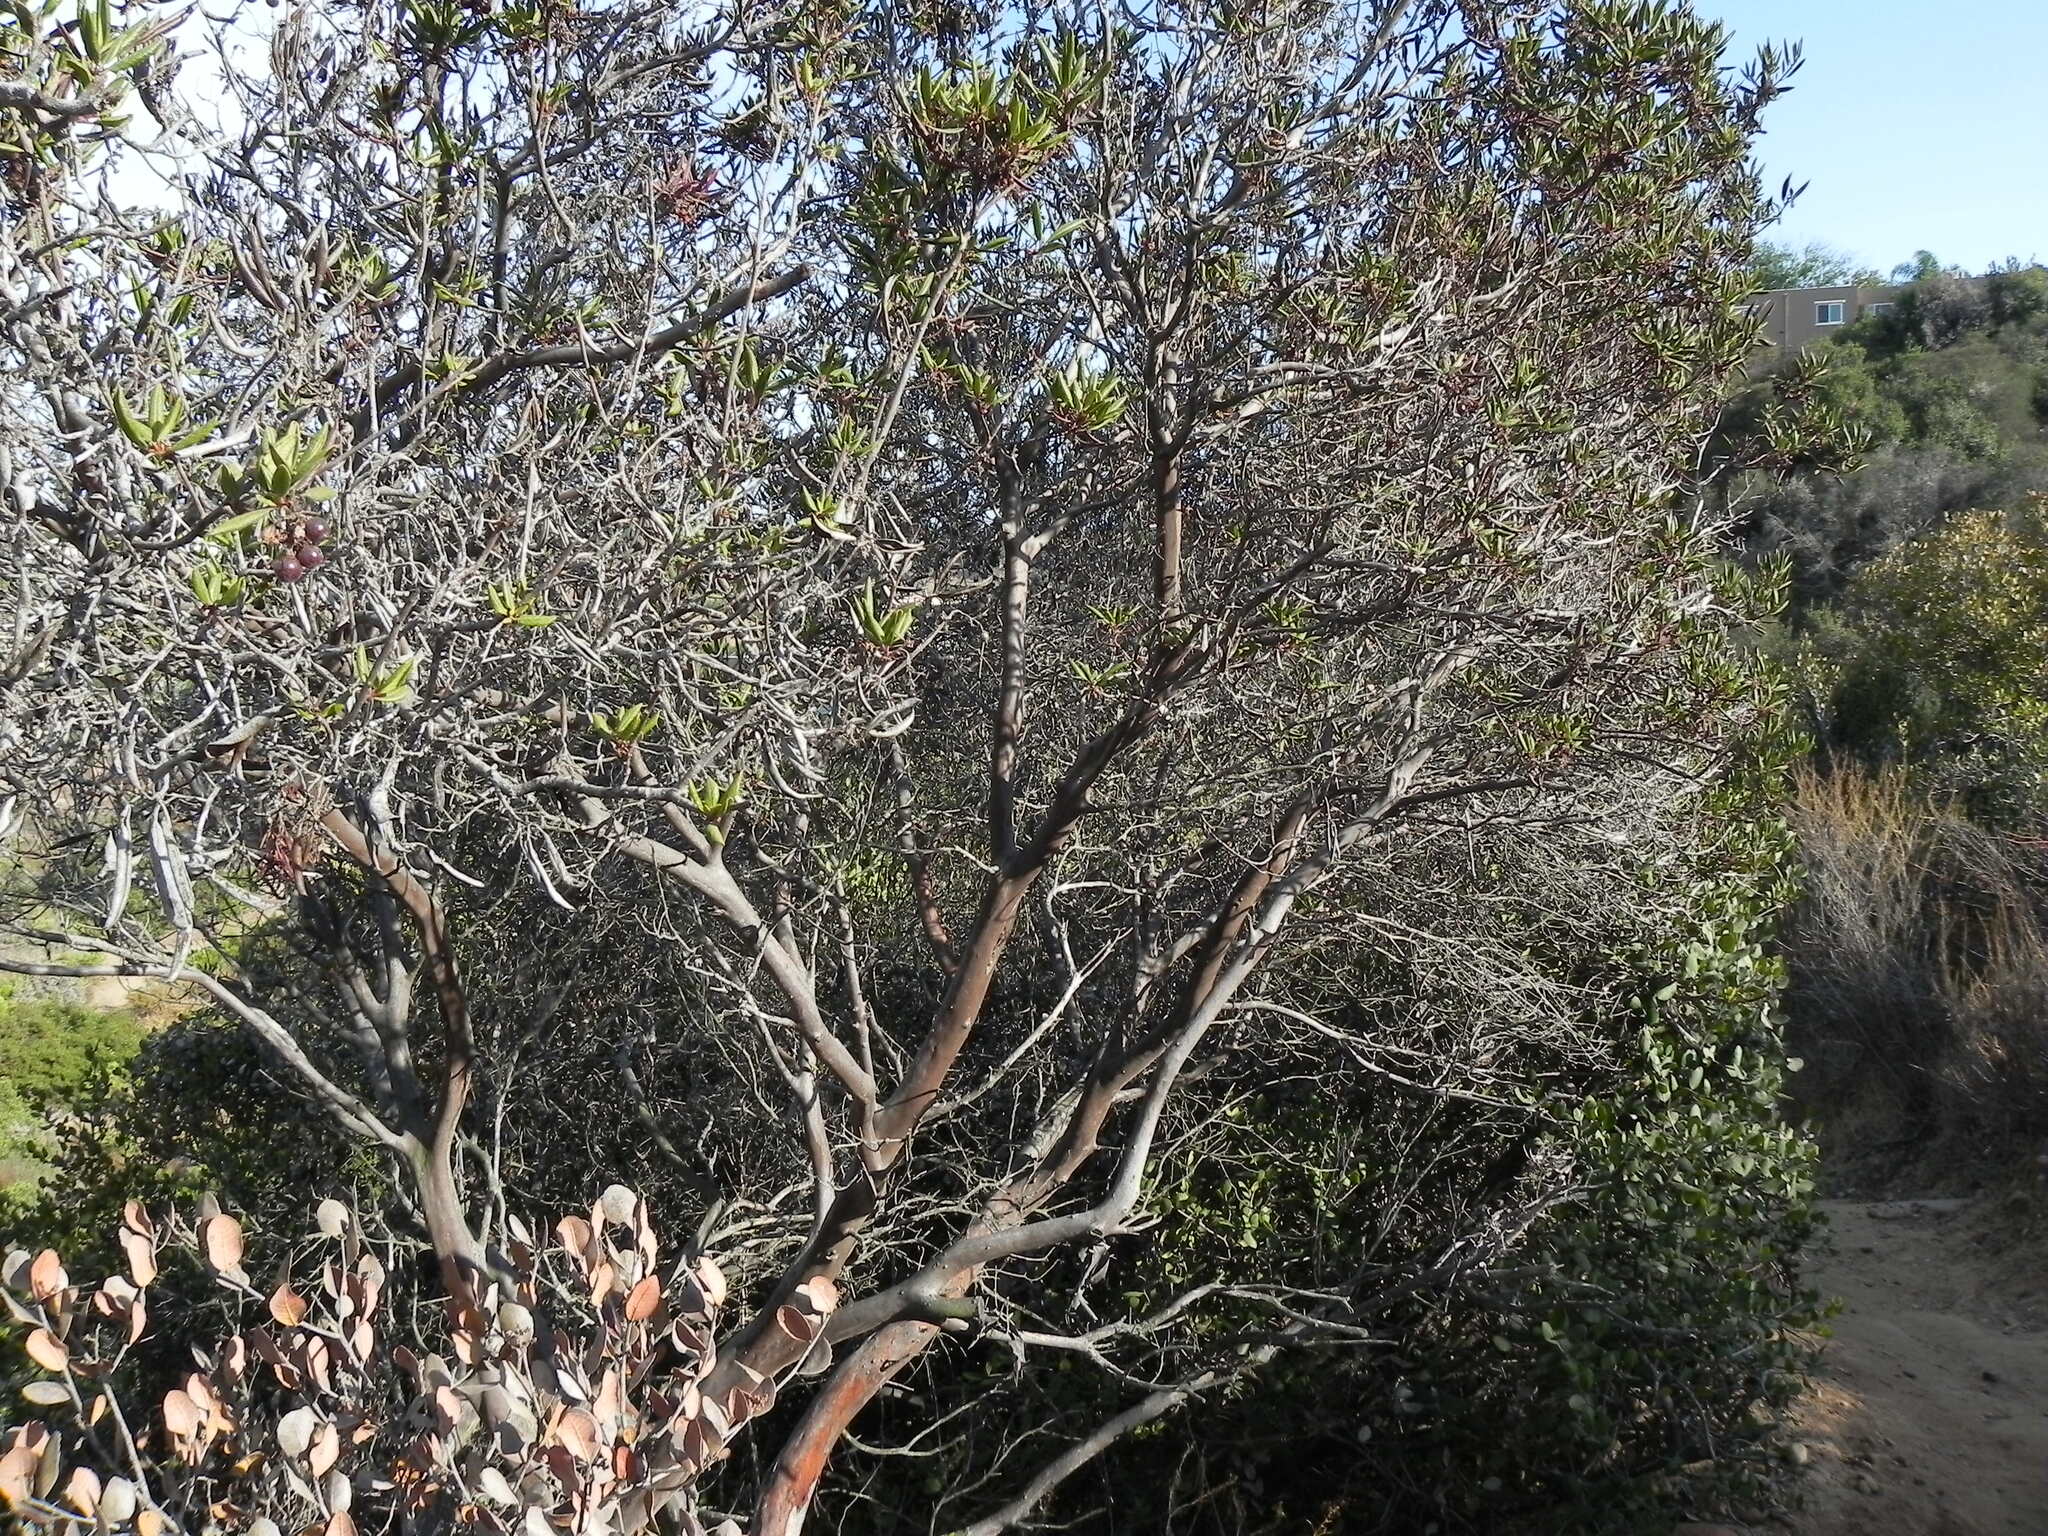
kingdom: Plantae
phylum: Tracheophyta
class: Magnoliopsida
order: Ericales
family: Ericaceae
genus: Arctostaphylos
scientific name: Arctostaphylos bicolor
